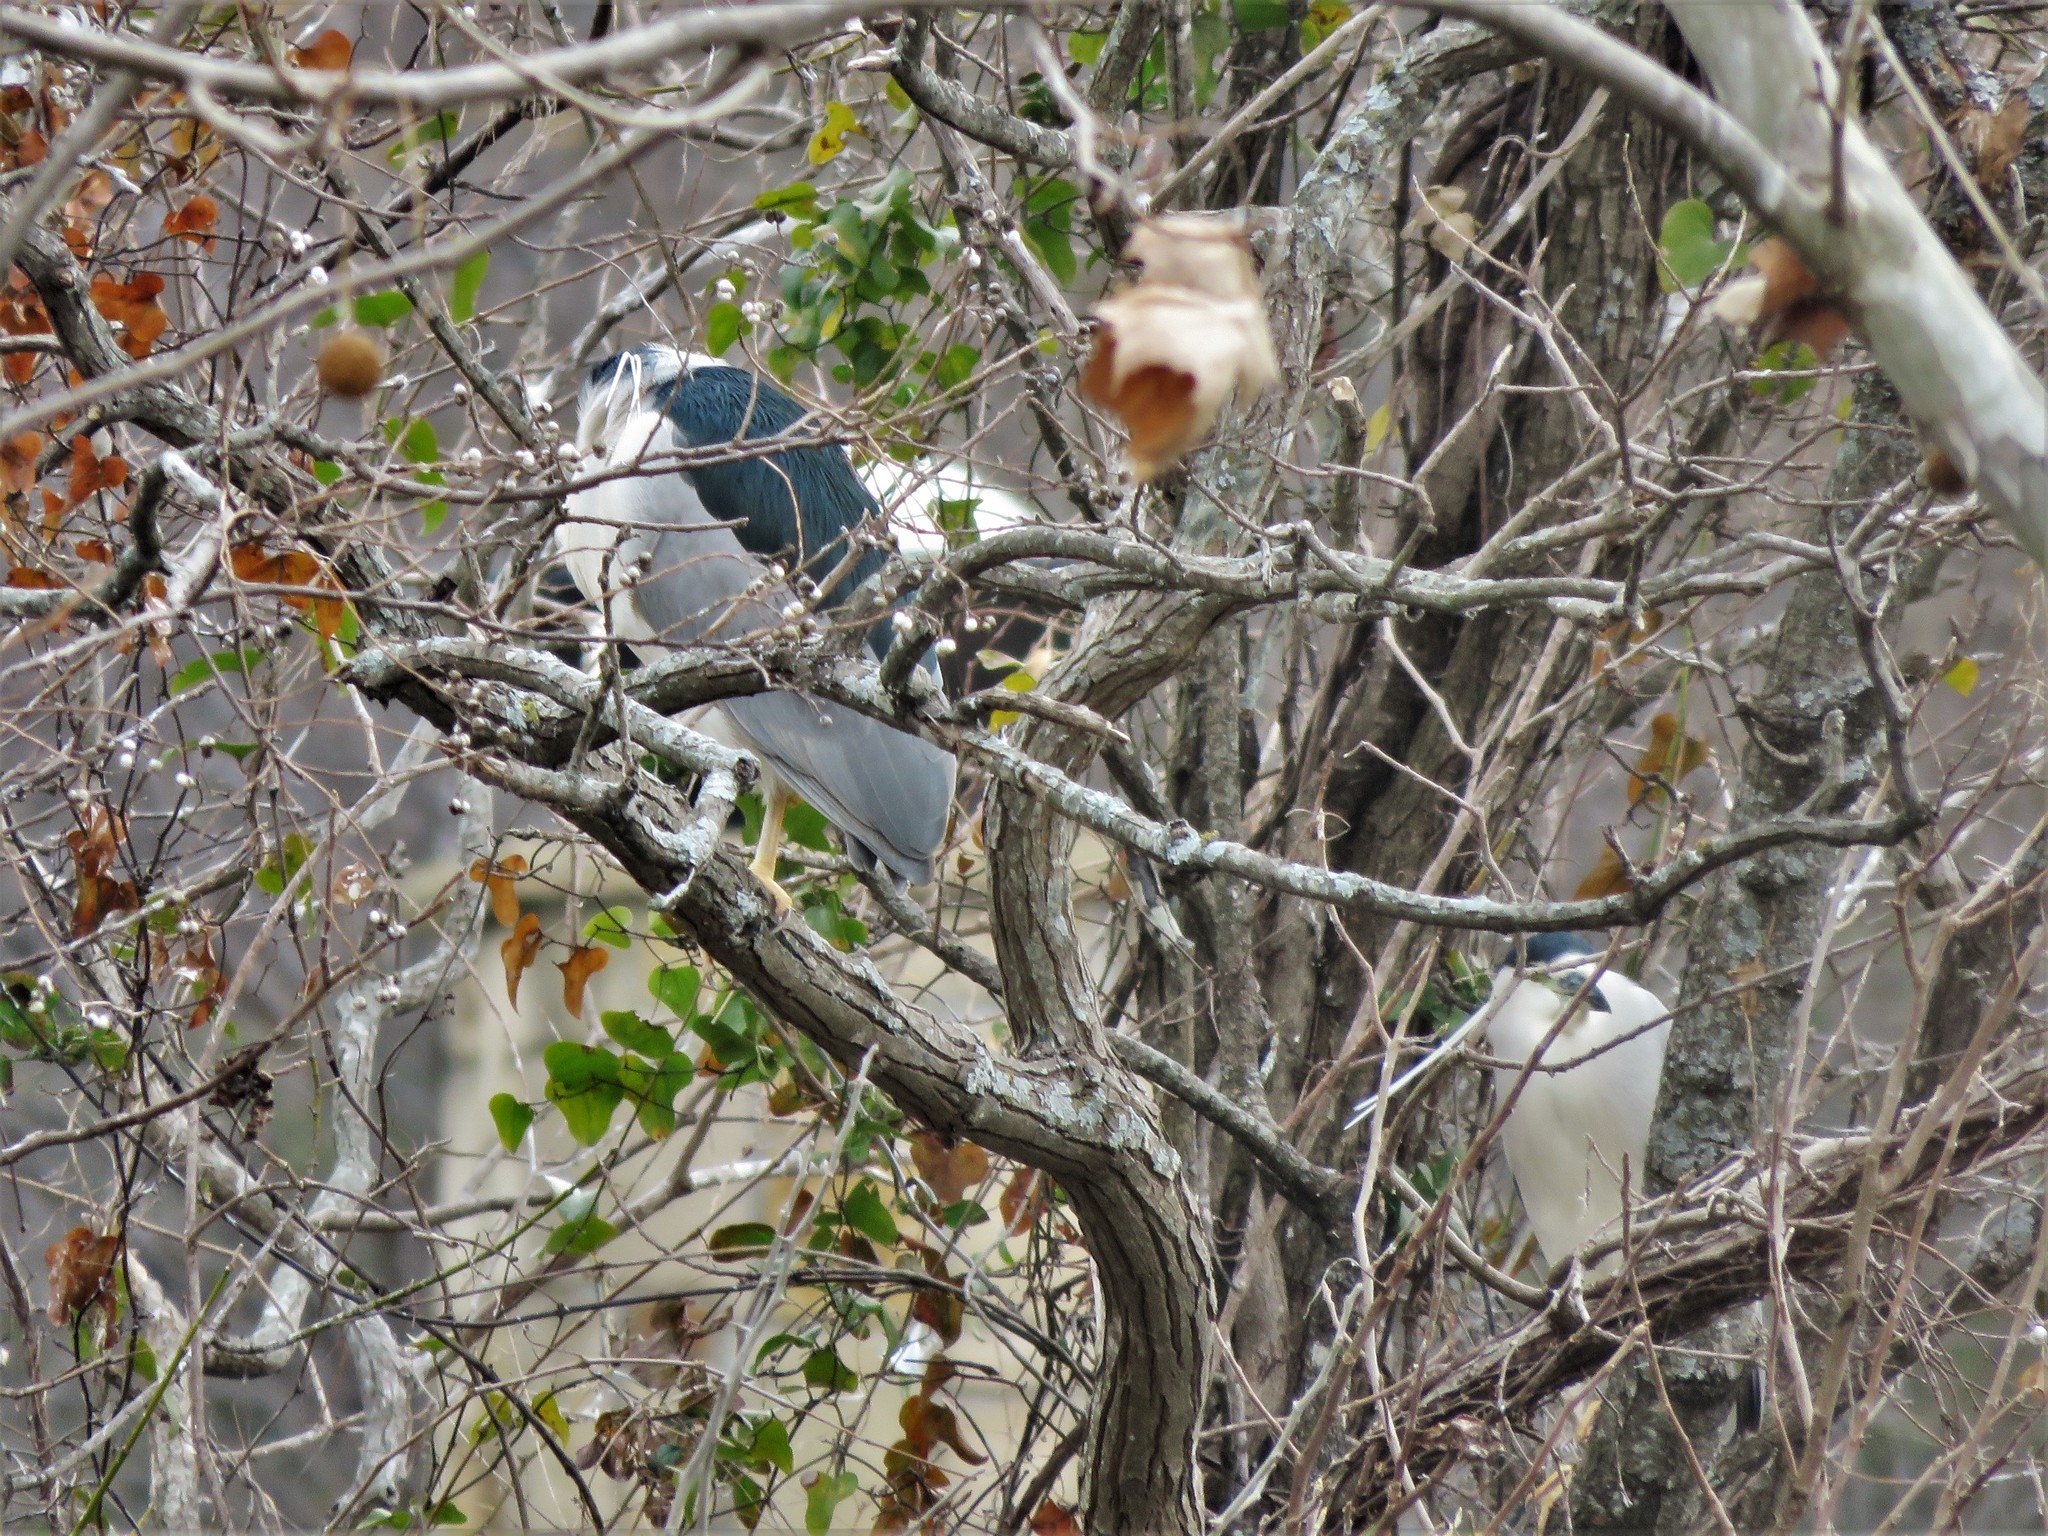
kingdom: Animalia
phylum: Chordata
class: Aves
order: Pelecaniformes
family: Ardeidae
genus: Nycticorax
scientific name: Nycticorax nycticorax
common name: Black-crowned night heron
